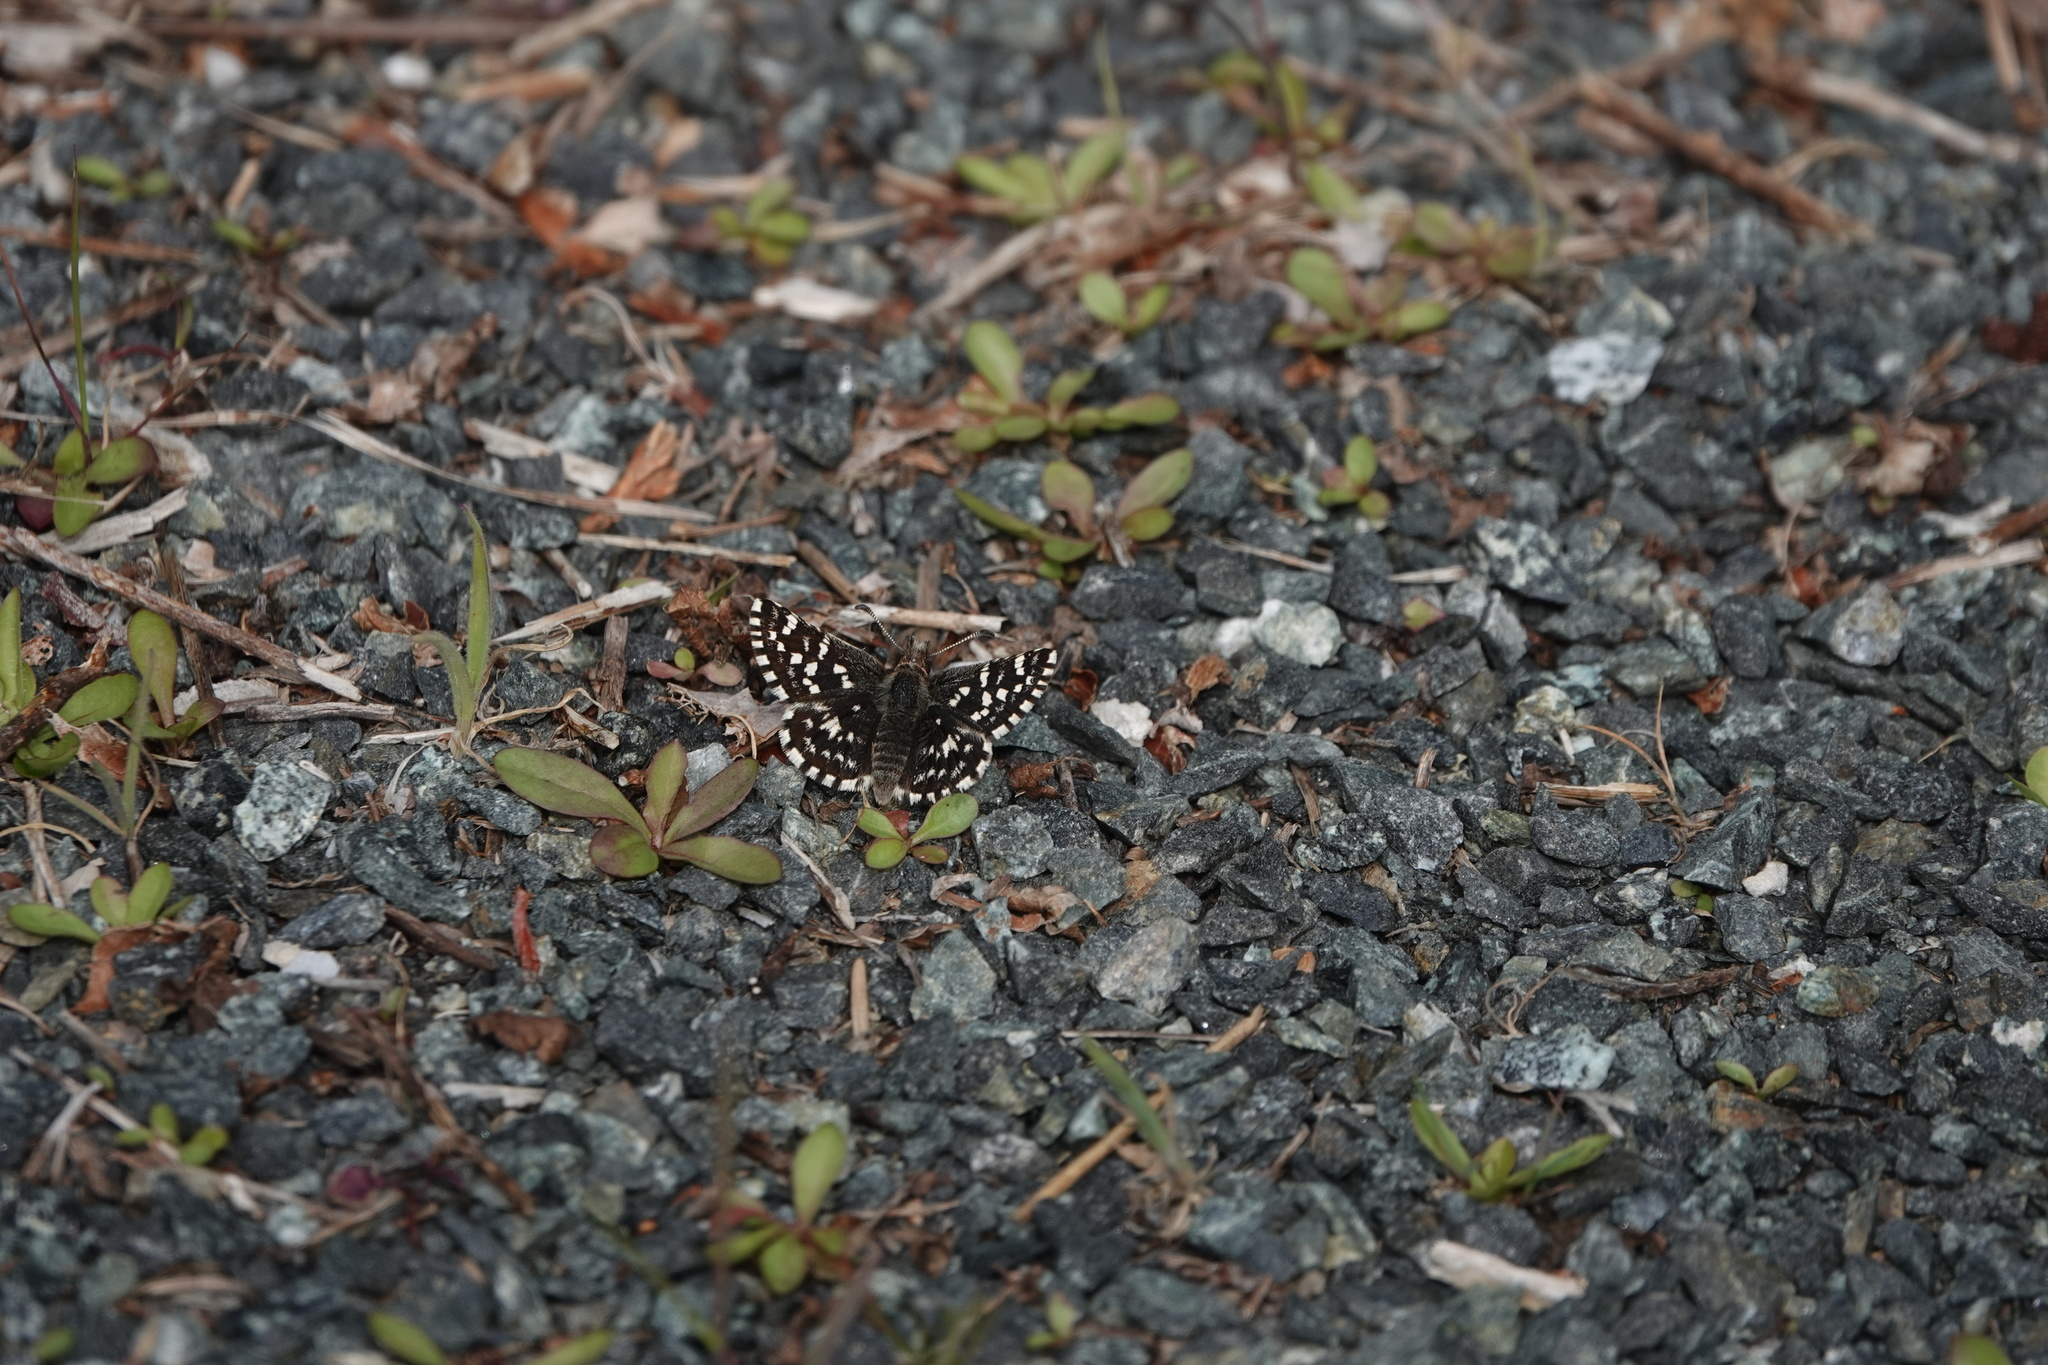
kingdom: Animalia
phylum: Arthropoda
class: Insecta
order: Lepidoptera
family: Hesperiidae
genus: Pyrgus
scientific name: Pyrgus ruralis
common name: Two-banded checkered-skipper
